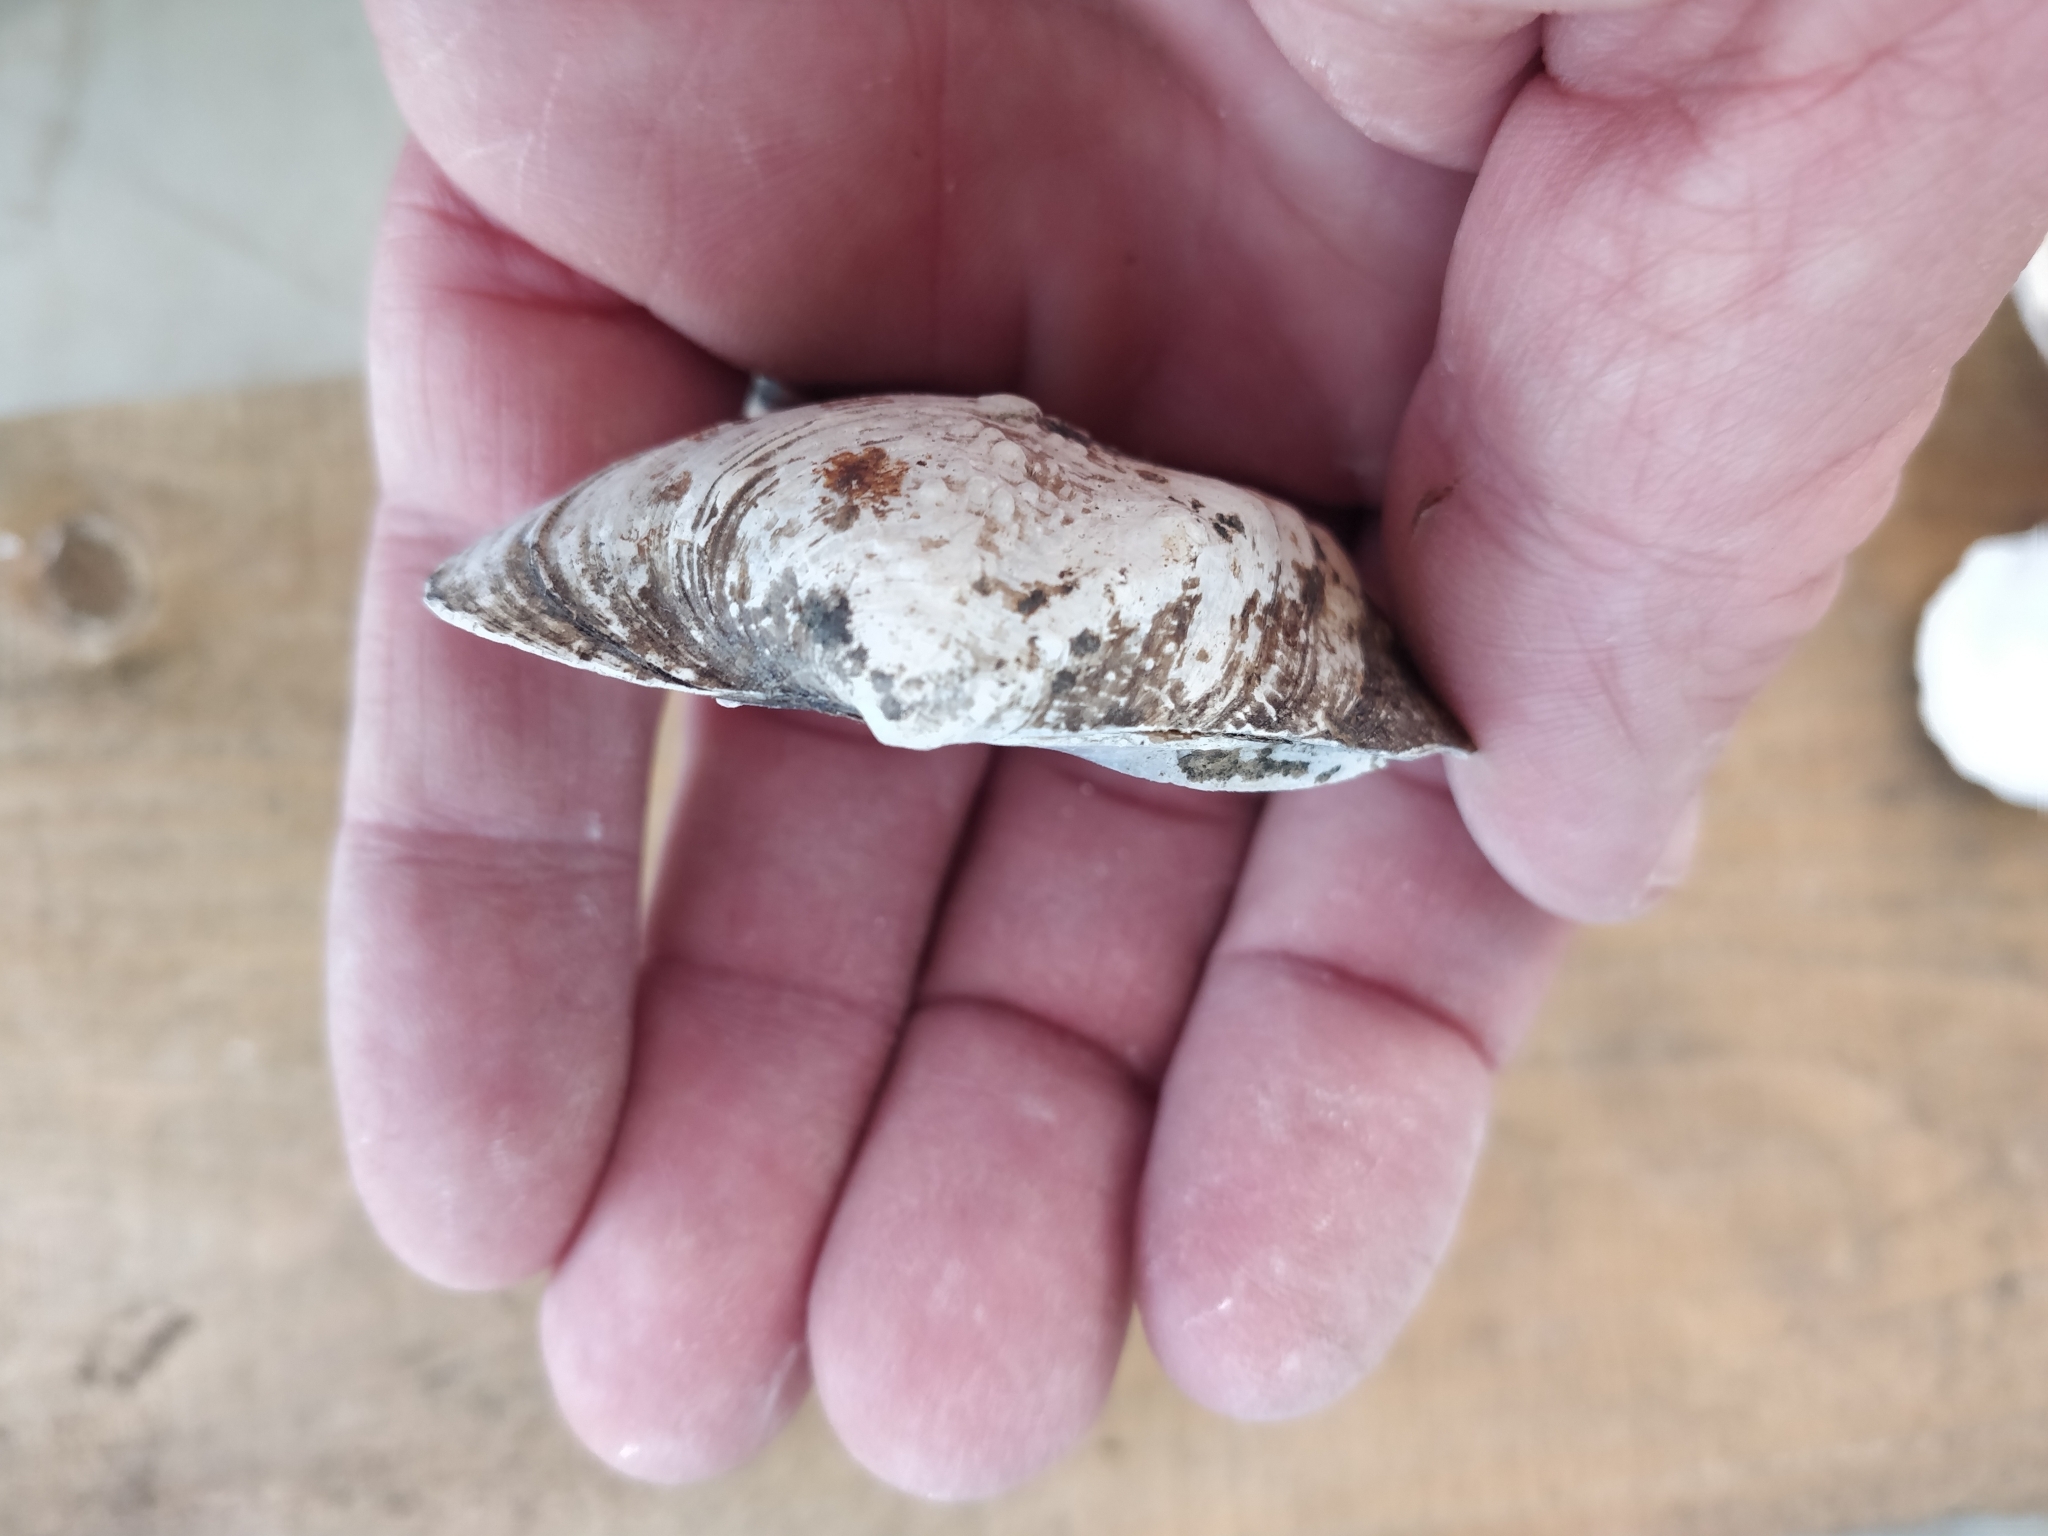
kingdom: Animalia
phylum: Mollusca
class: Bivalvia
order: Unionida
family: Unionidae
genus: Quadrula
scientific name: Quadrula quadrula
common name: Mapleleaf
